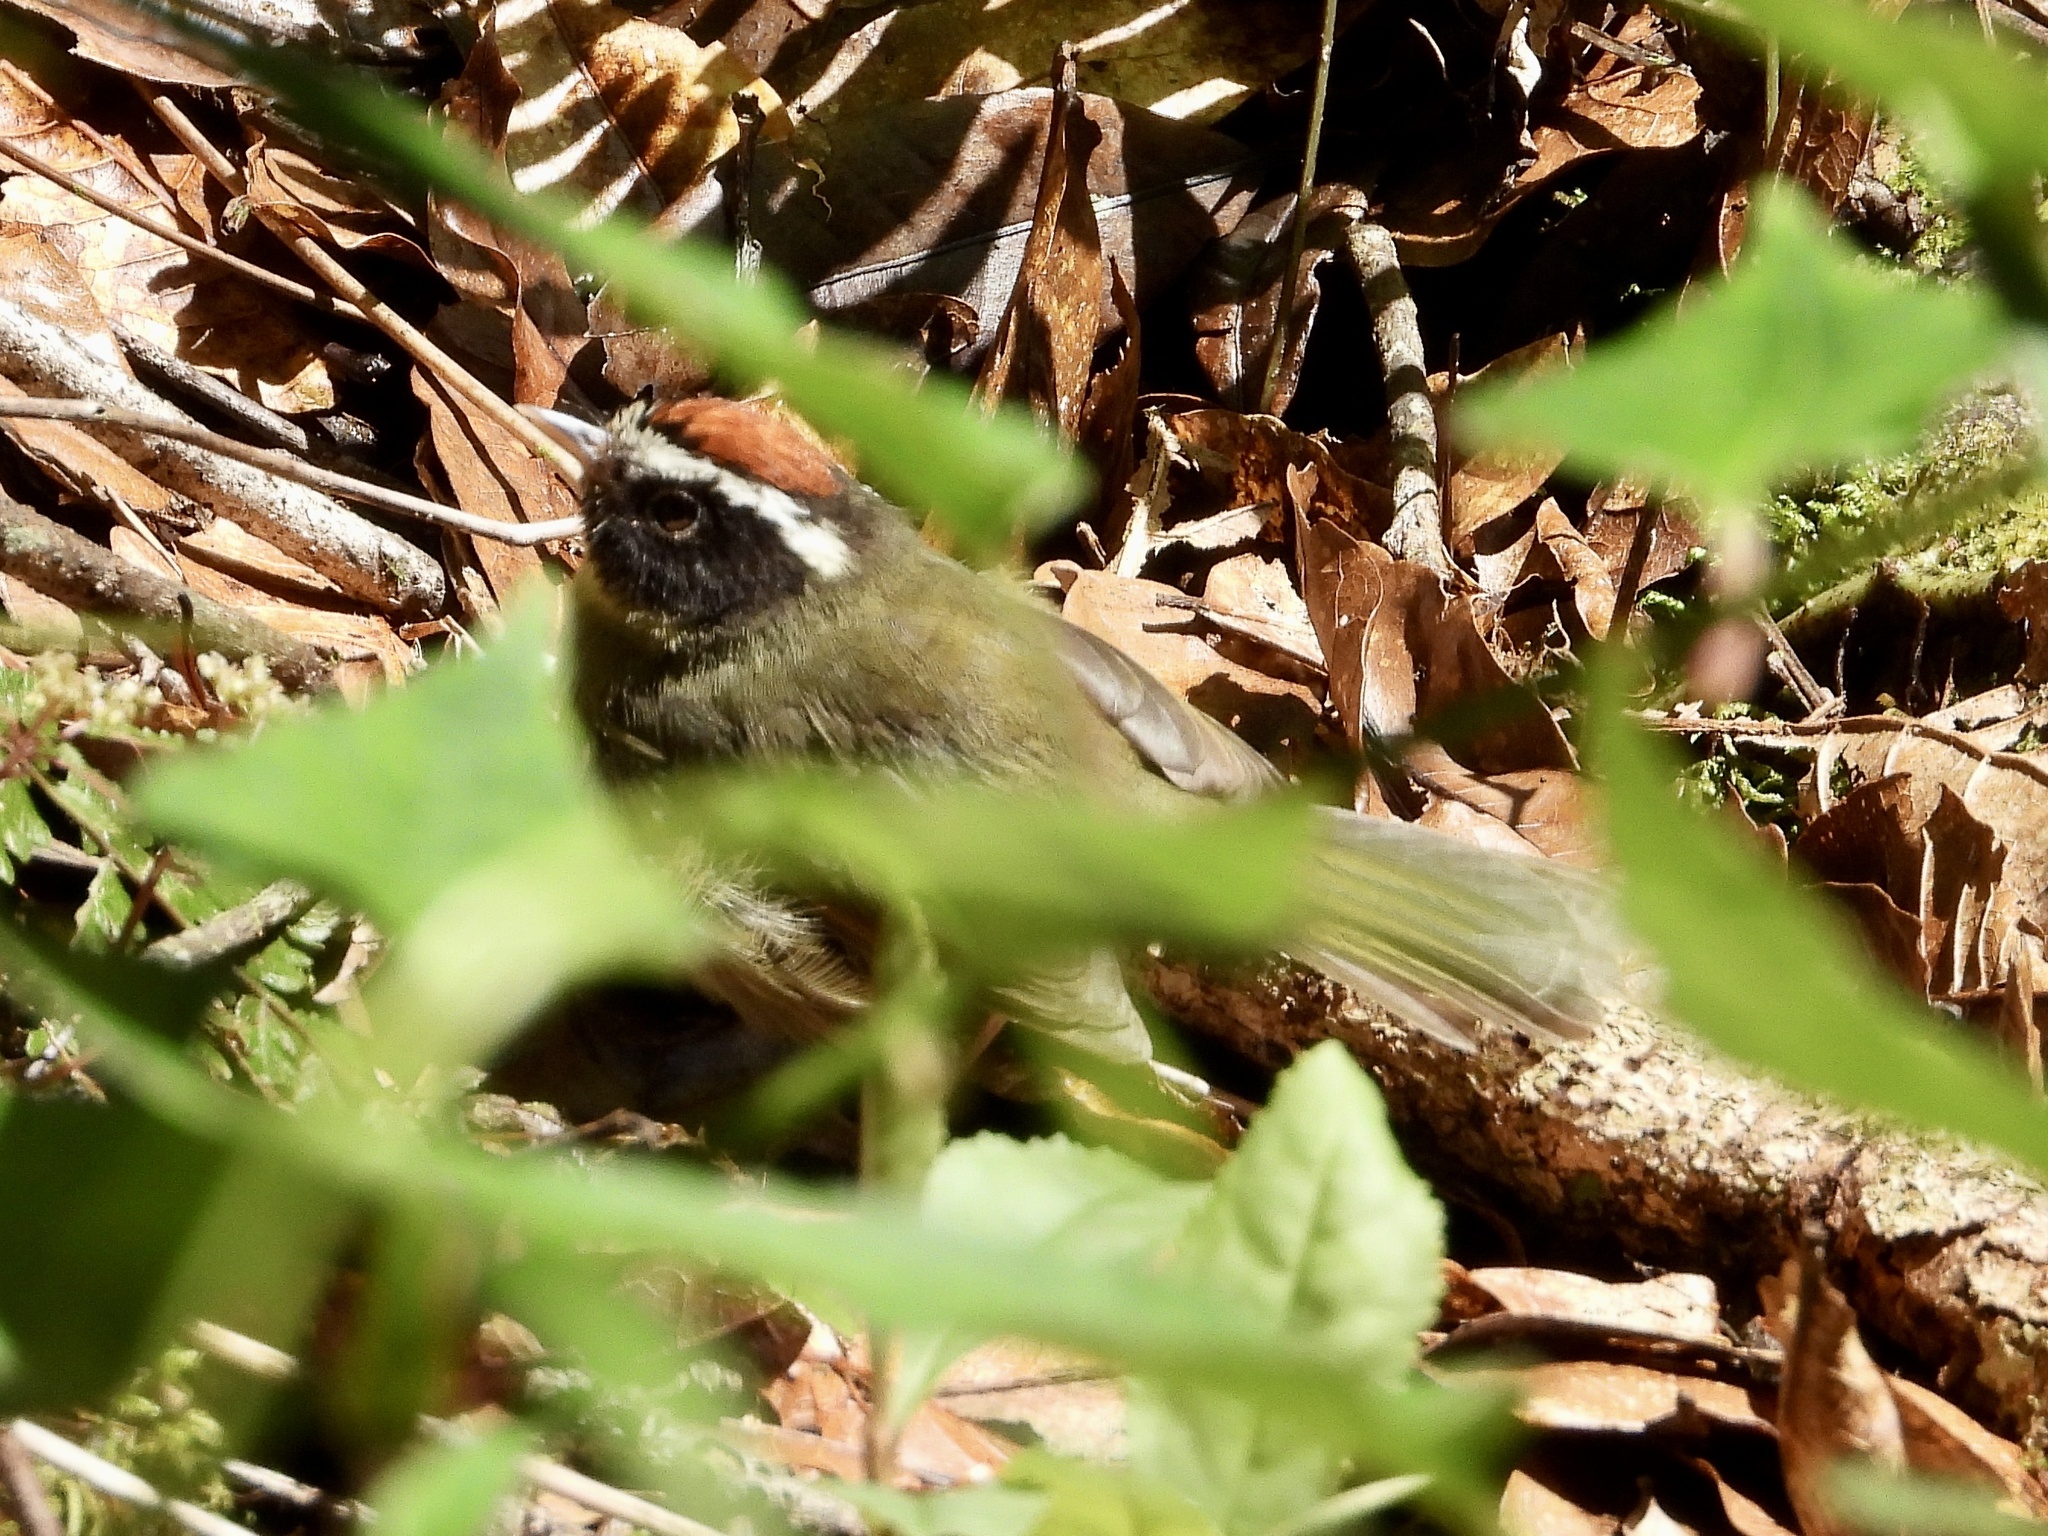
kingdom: Animalia
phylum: Chordata
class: Aves
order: Passeriformes
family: Parulidae
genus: Basileuterus
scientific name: Basileuterus melanogenys
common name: Black-cheeked warbler
